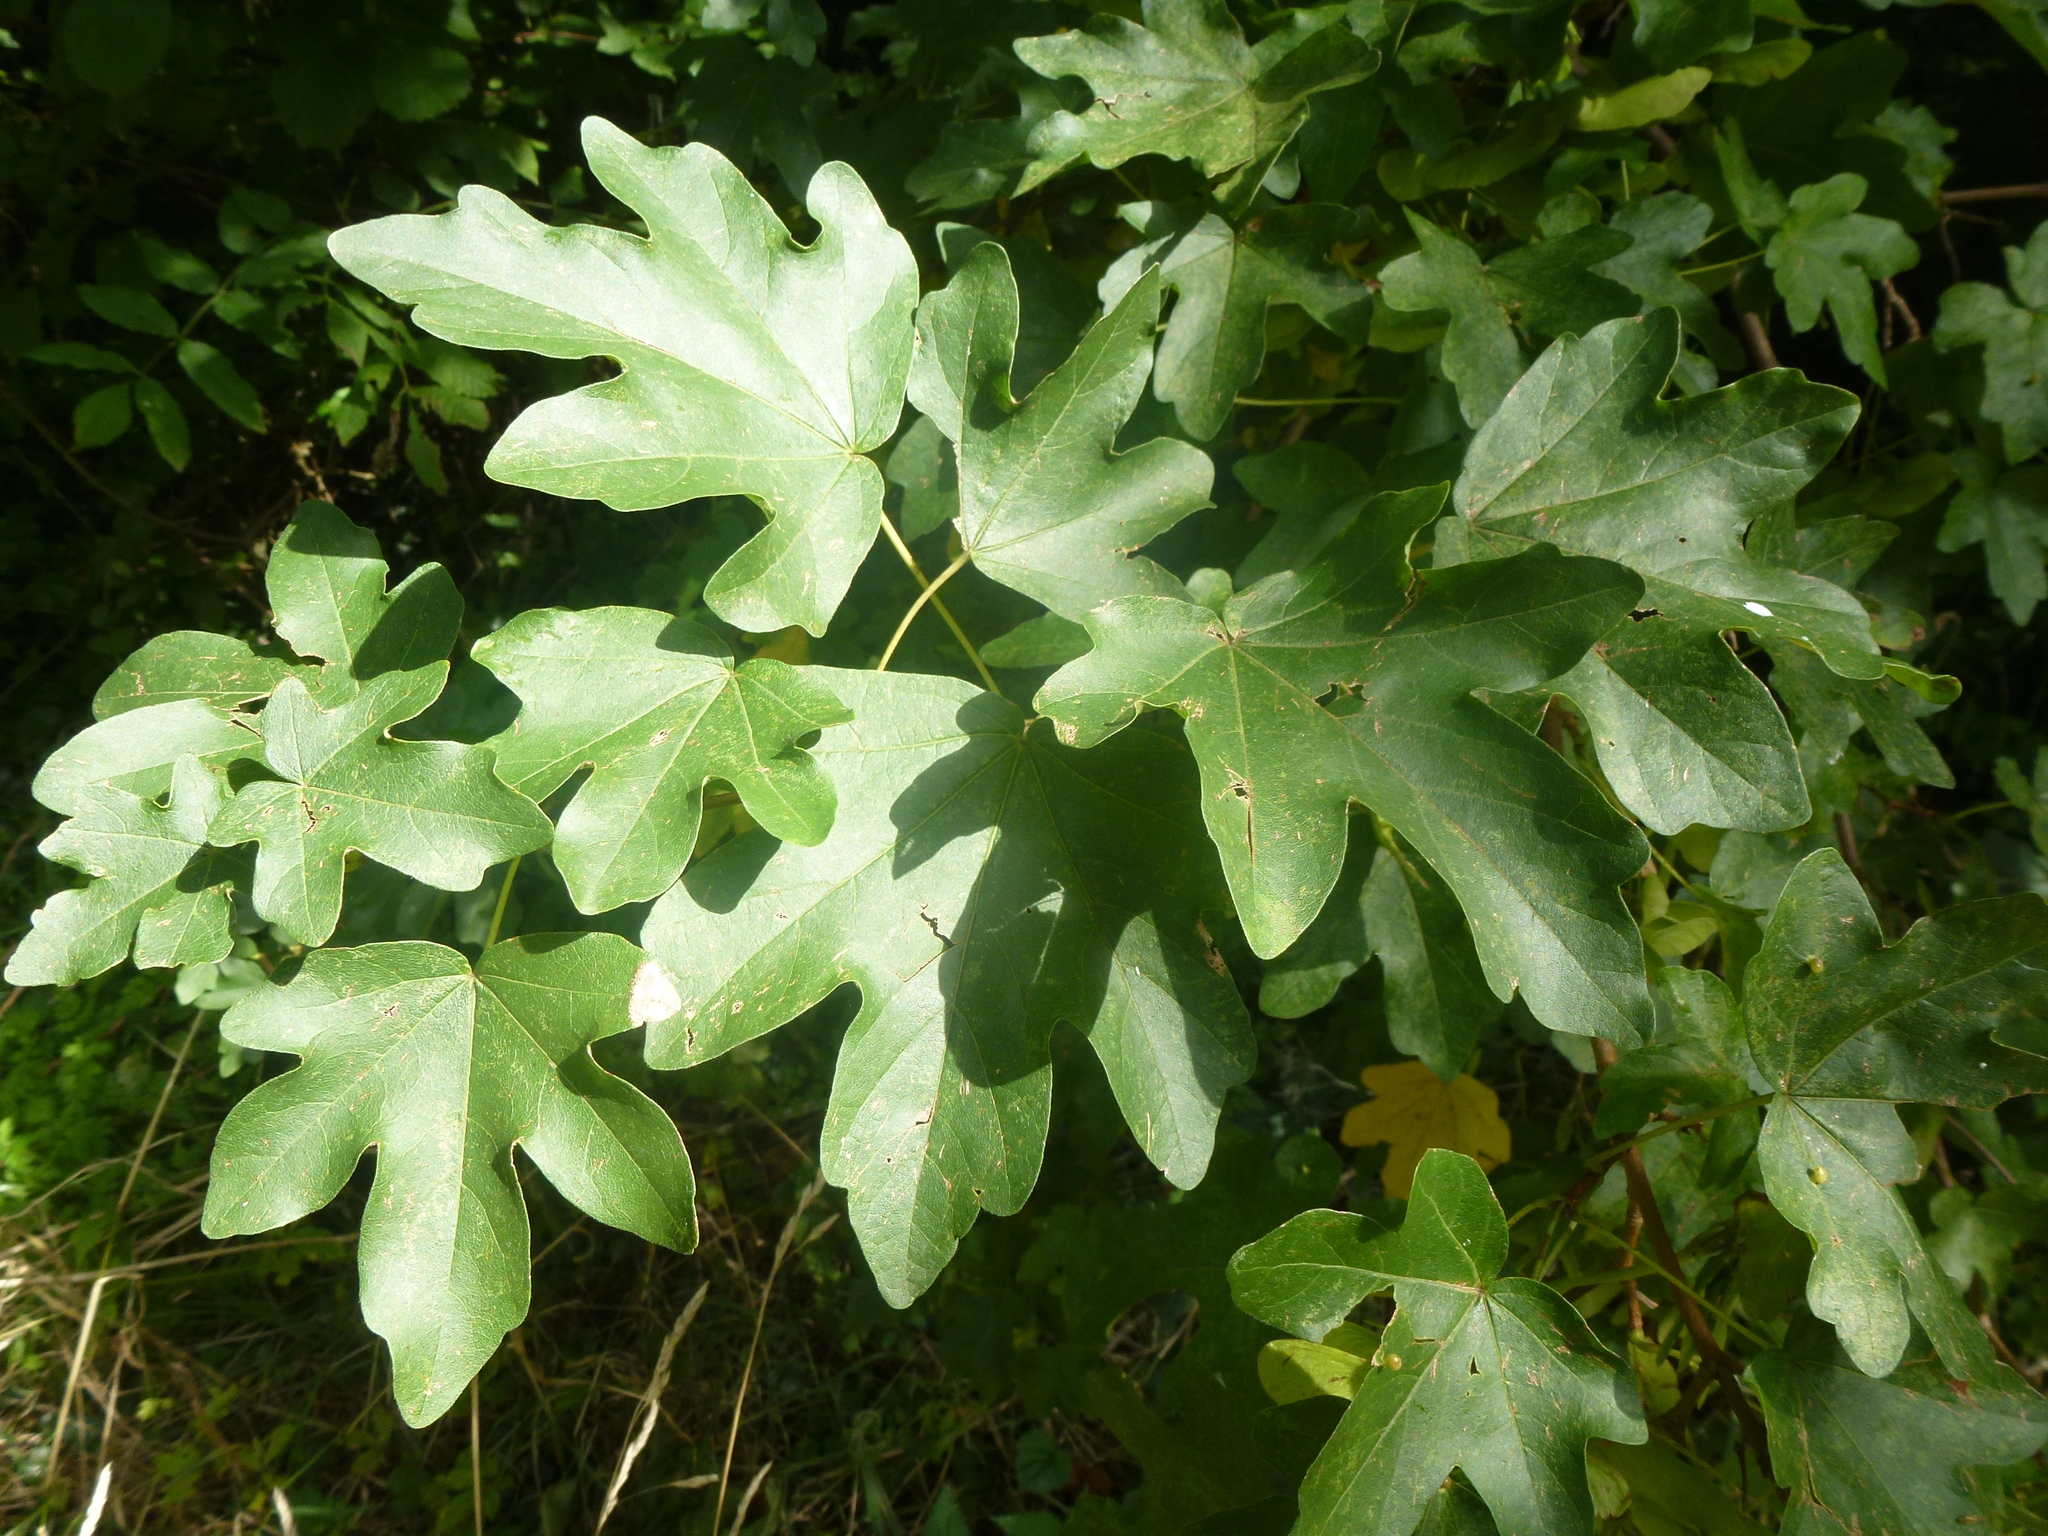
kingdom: Plantae
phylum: Tracheophyta
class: Magnoliopsida
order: Sapindales
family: Sapindaceae
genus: Acer
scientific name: Acer campestre
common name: Field maple
